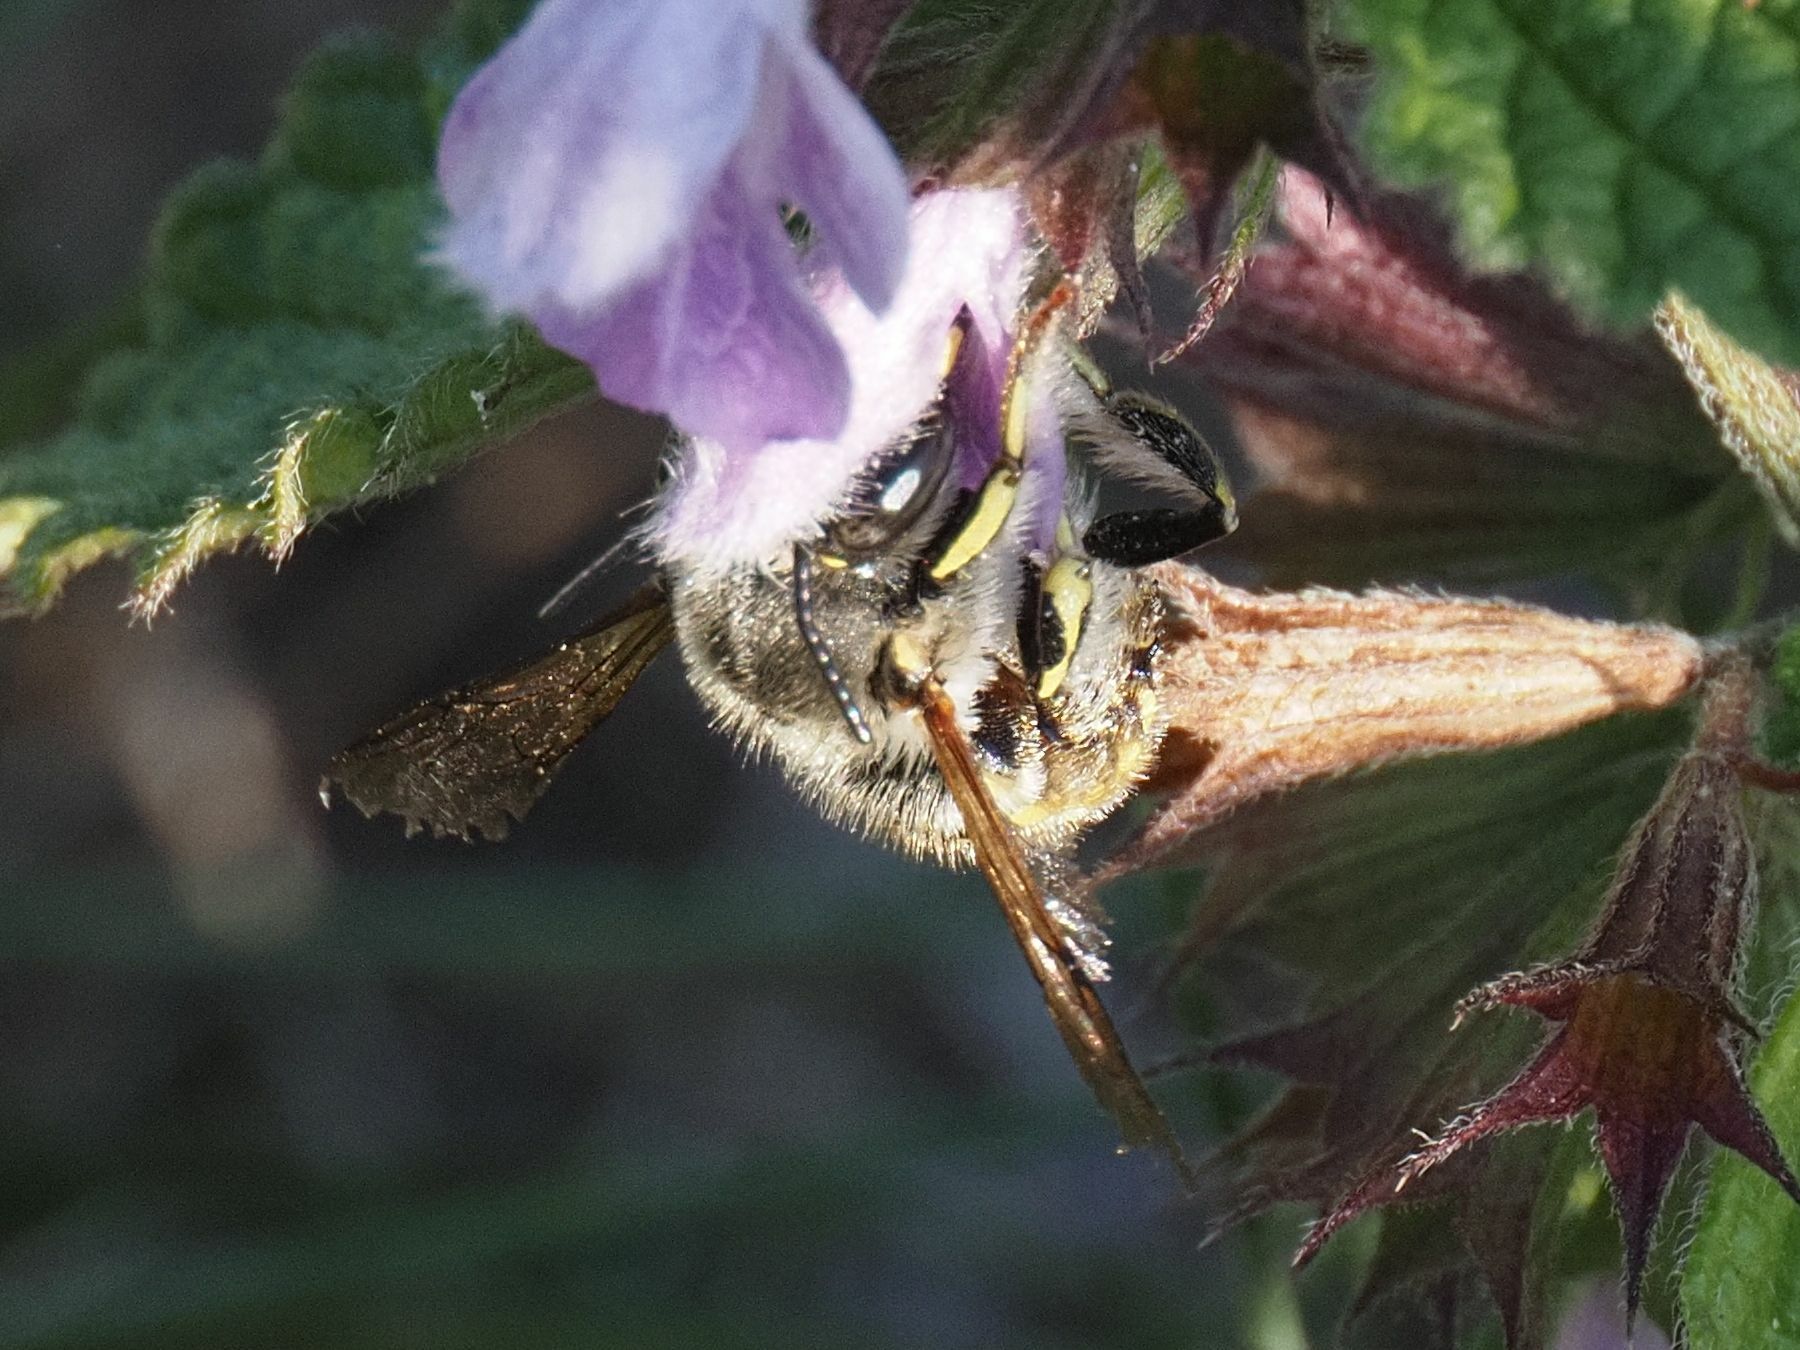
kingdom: Animalia
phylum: Arthropoda
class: Insecta
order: Hymenoptera
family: Megachilidae
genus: Anthidium
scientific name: Anthidium manicatum
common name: Wool carder bee
